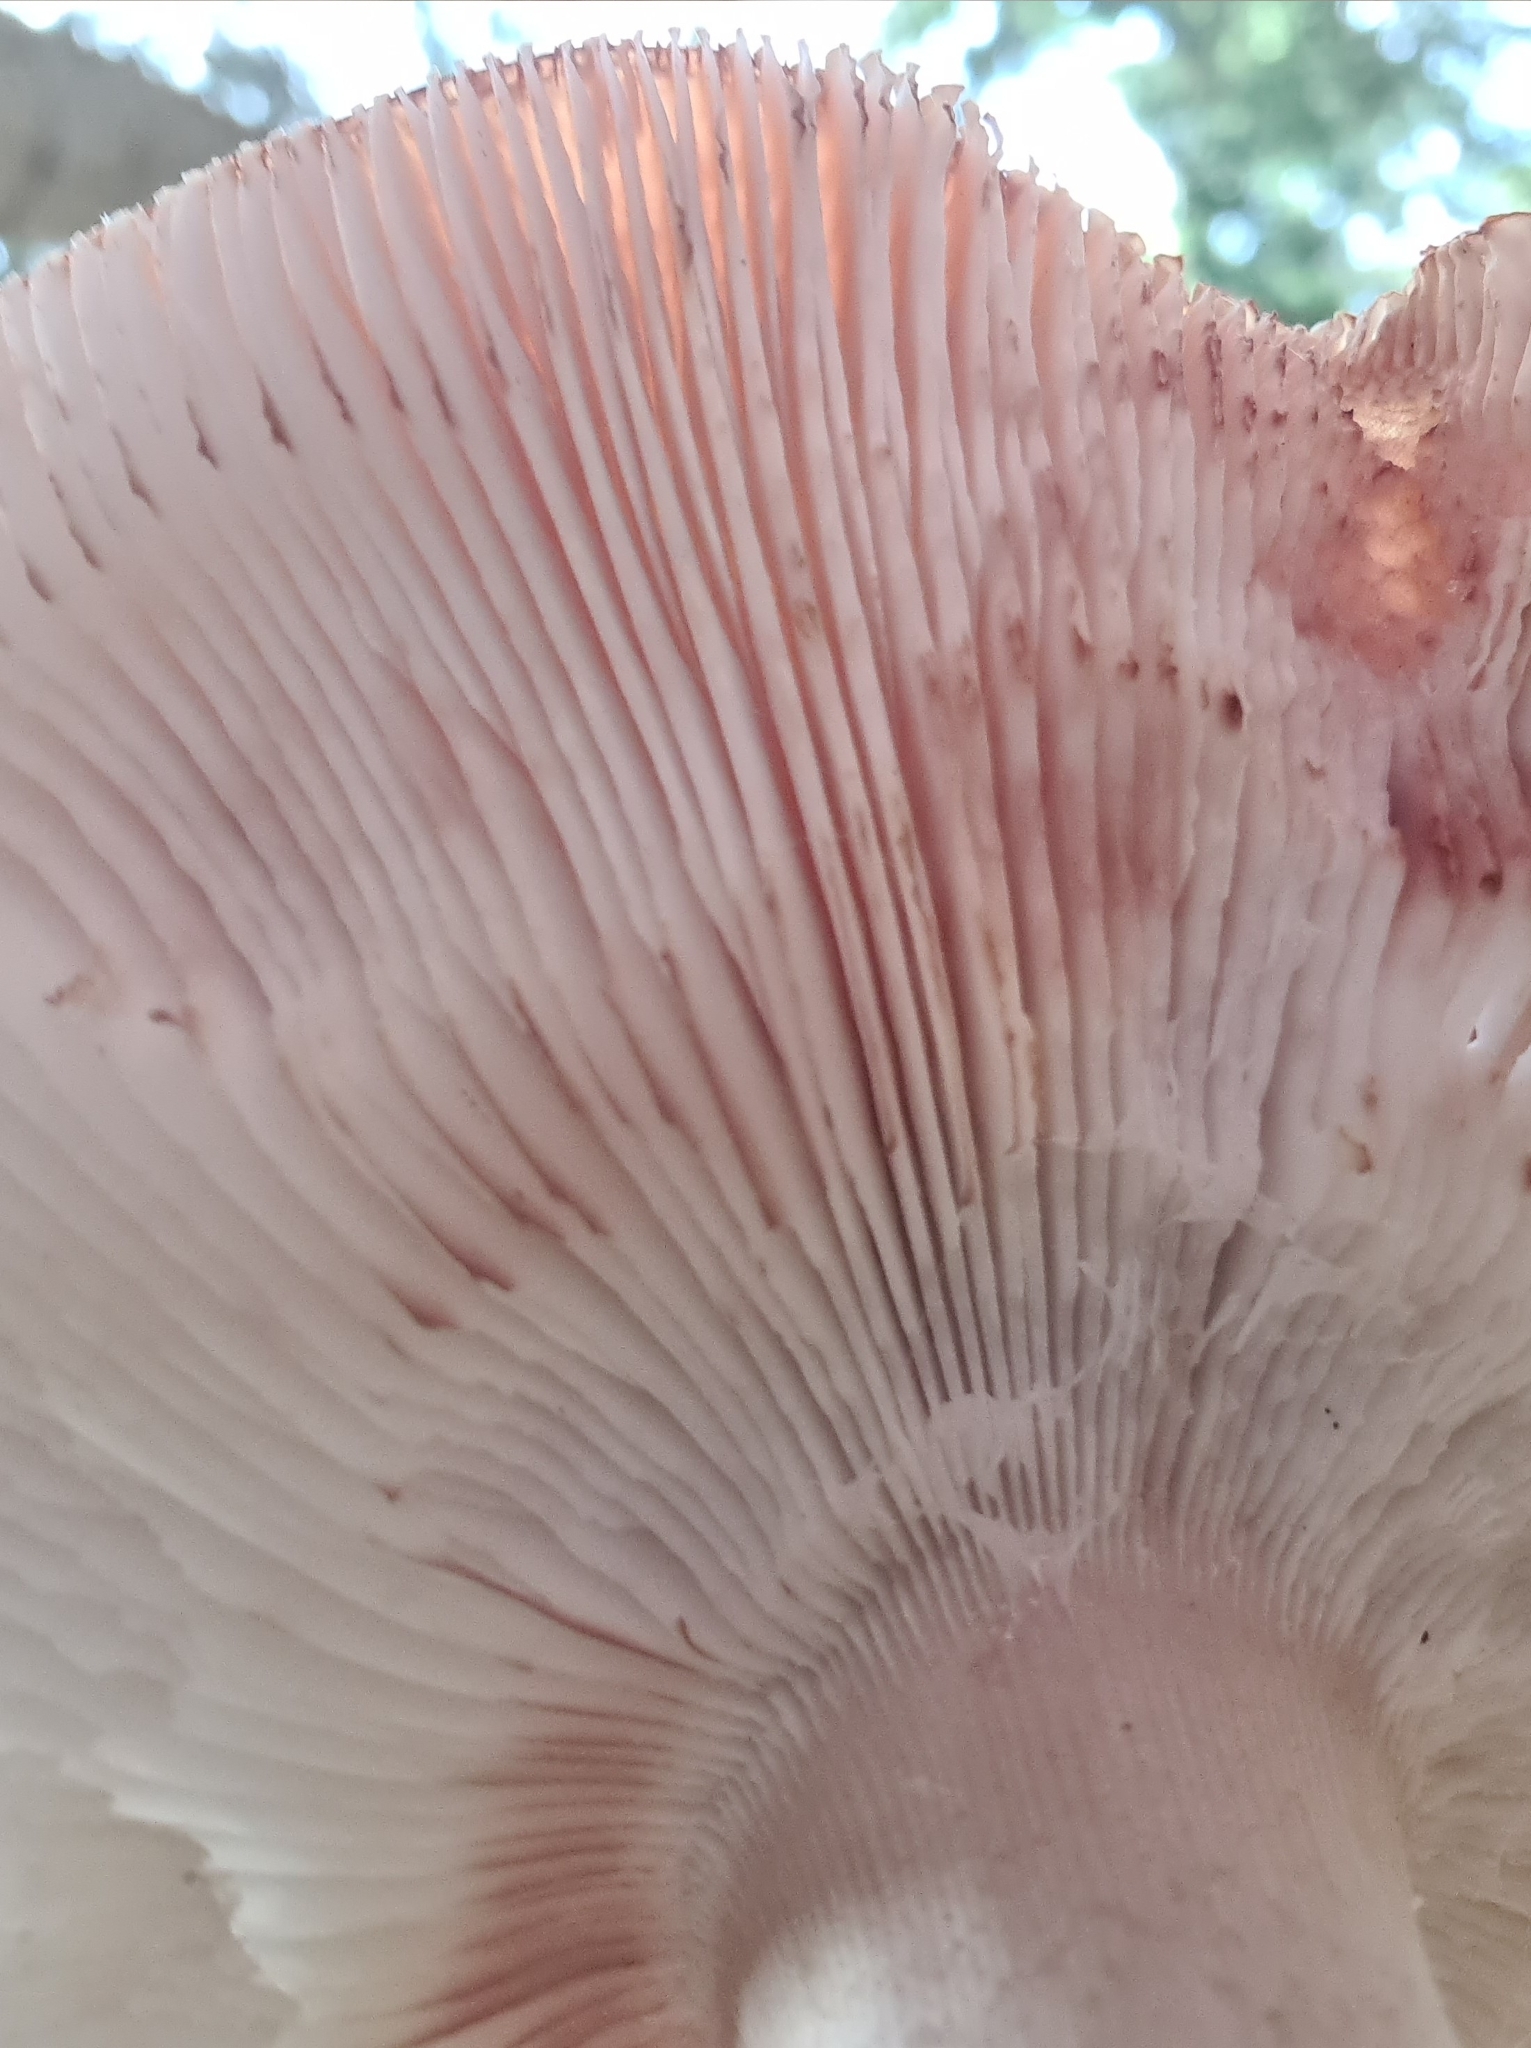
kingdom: Fungi
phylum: Basidiomycota
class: Agaricomycetes
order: Agaricales
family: Amanitaceae
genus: Amanita
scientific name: Amanita rubescens
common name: Blusher
